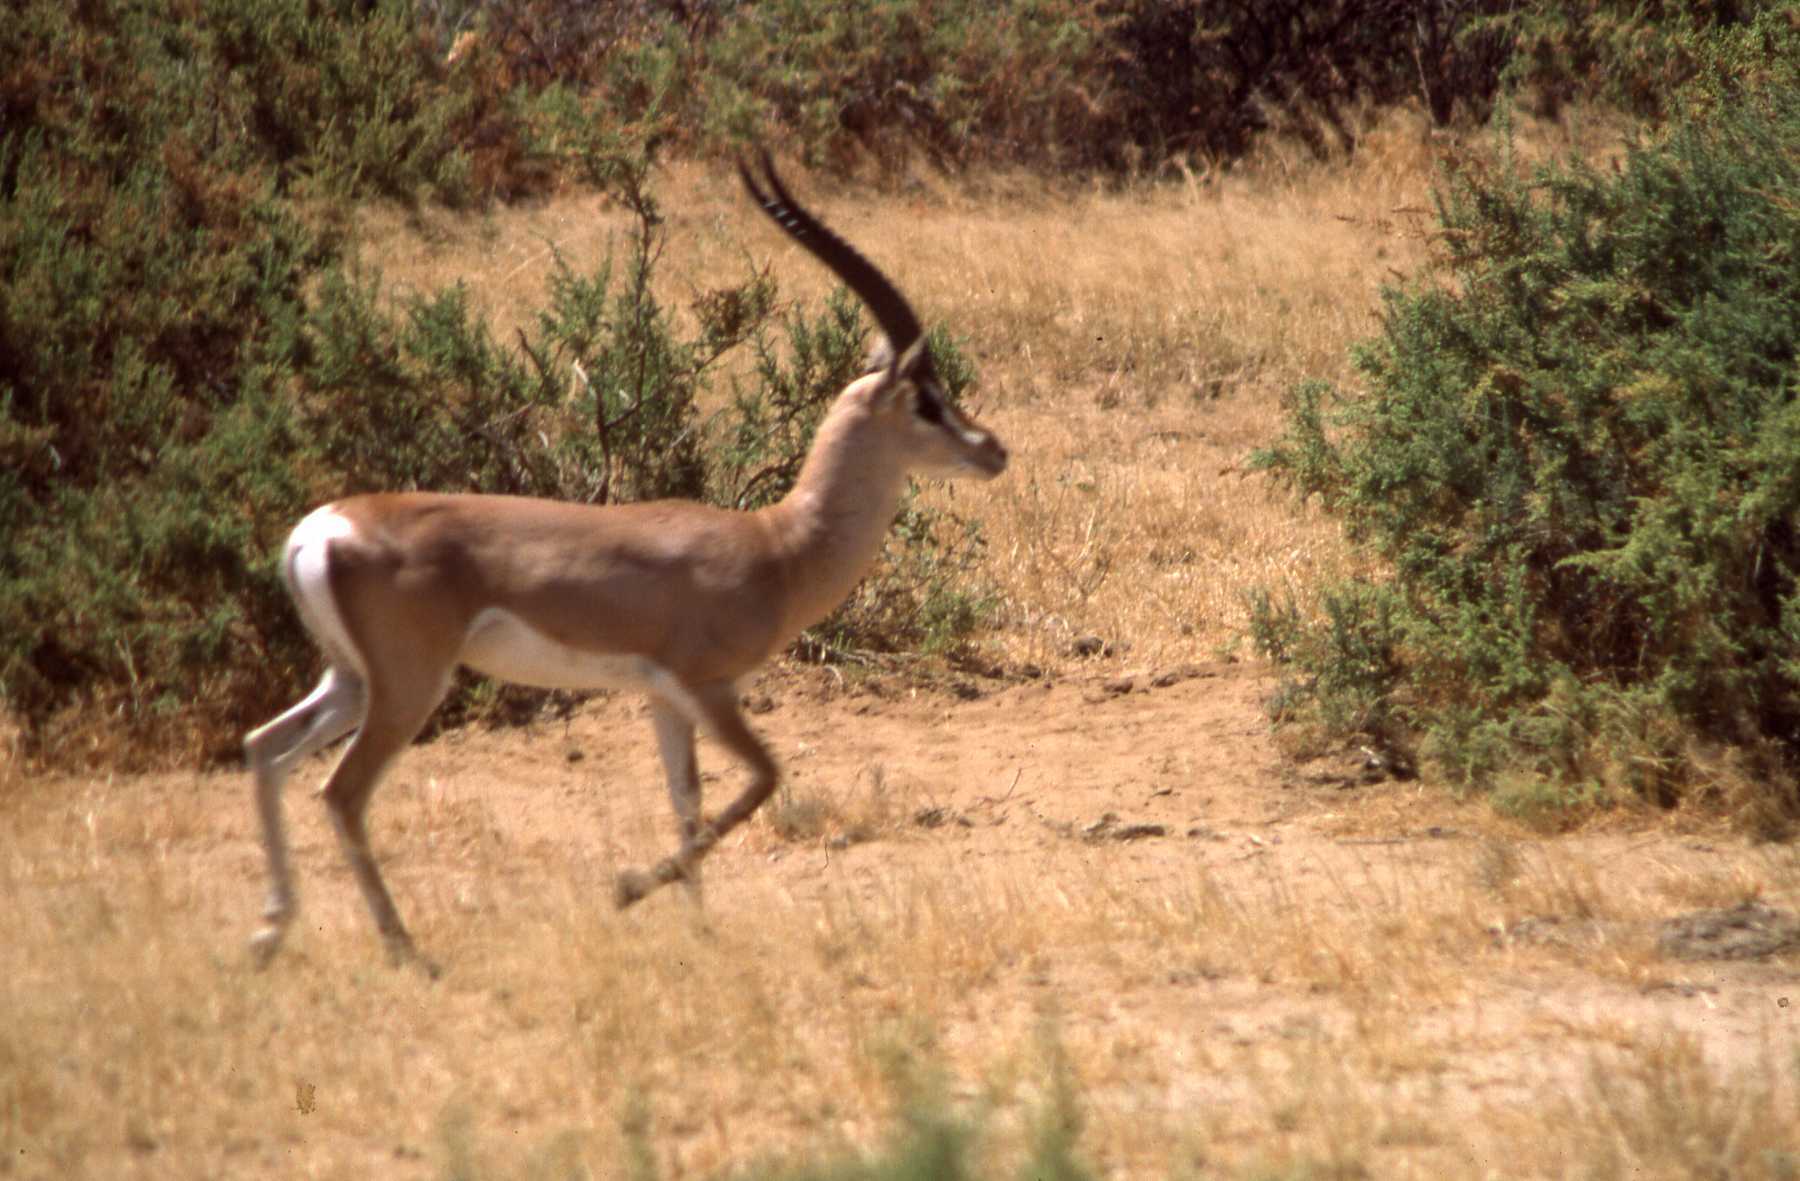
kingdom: Animalia
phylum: Chordata
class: Mammalia
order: Artiodactyla
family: Bovidae
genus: Nanger
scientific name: Nanger granti
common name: Grant's gazelle
